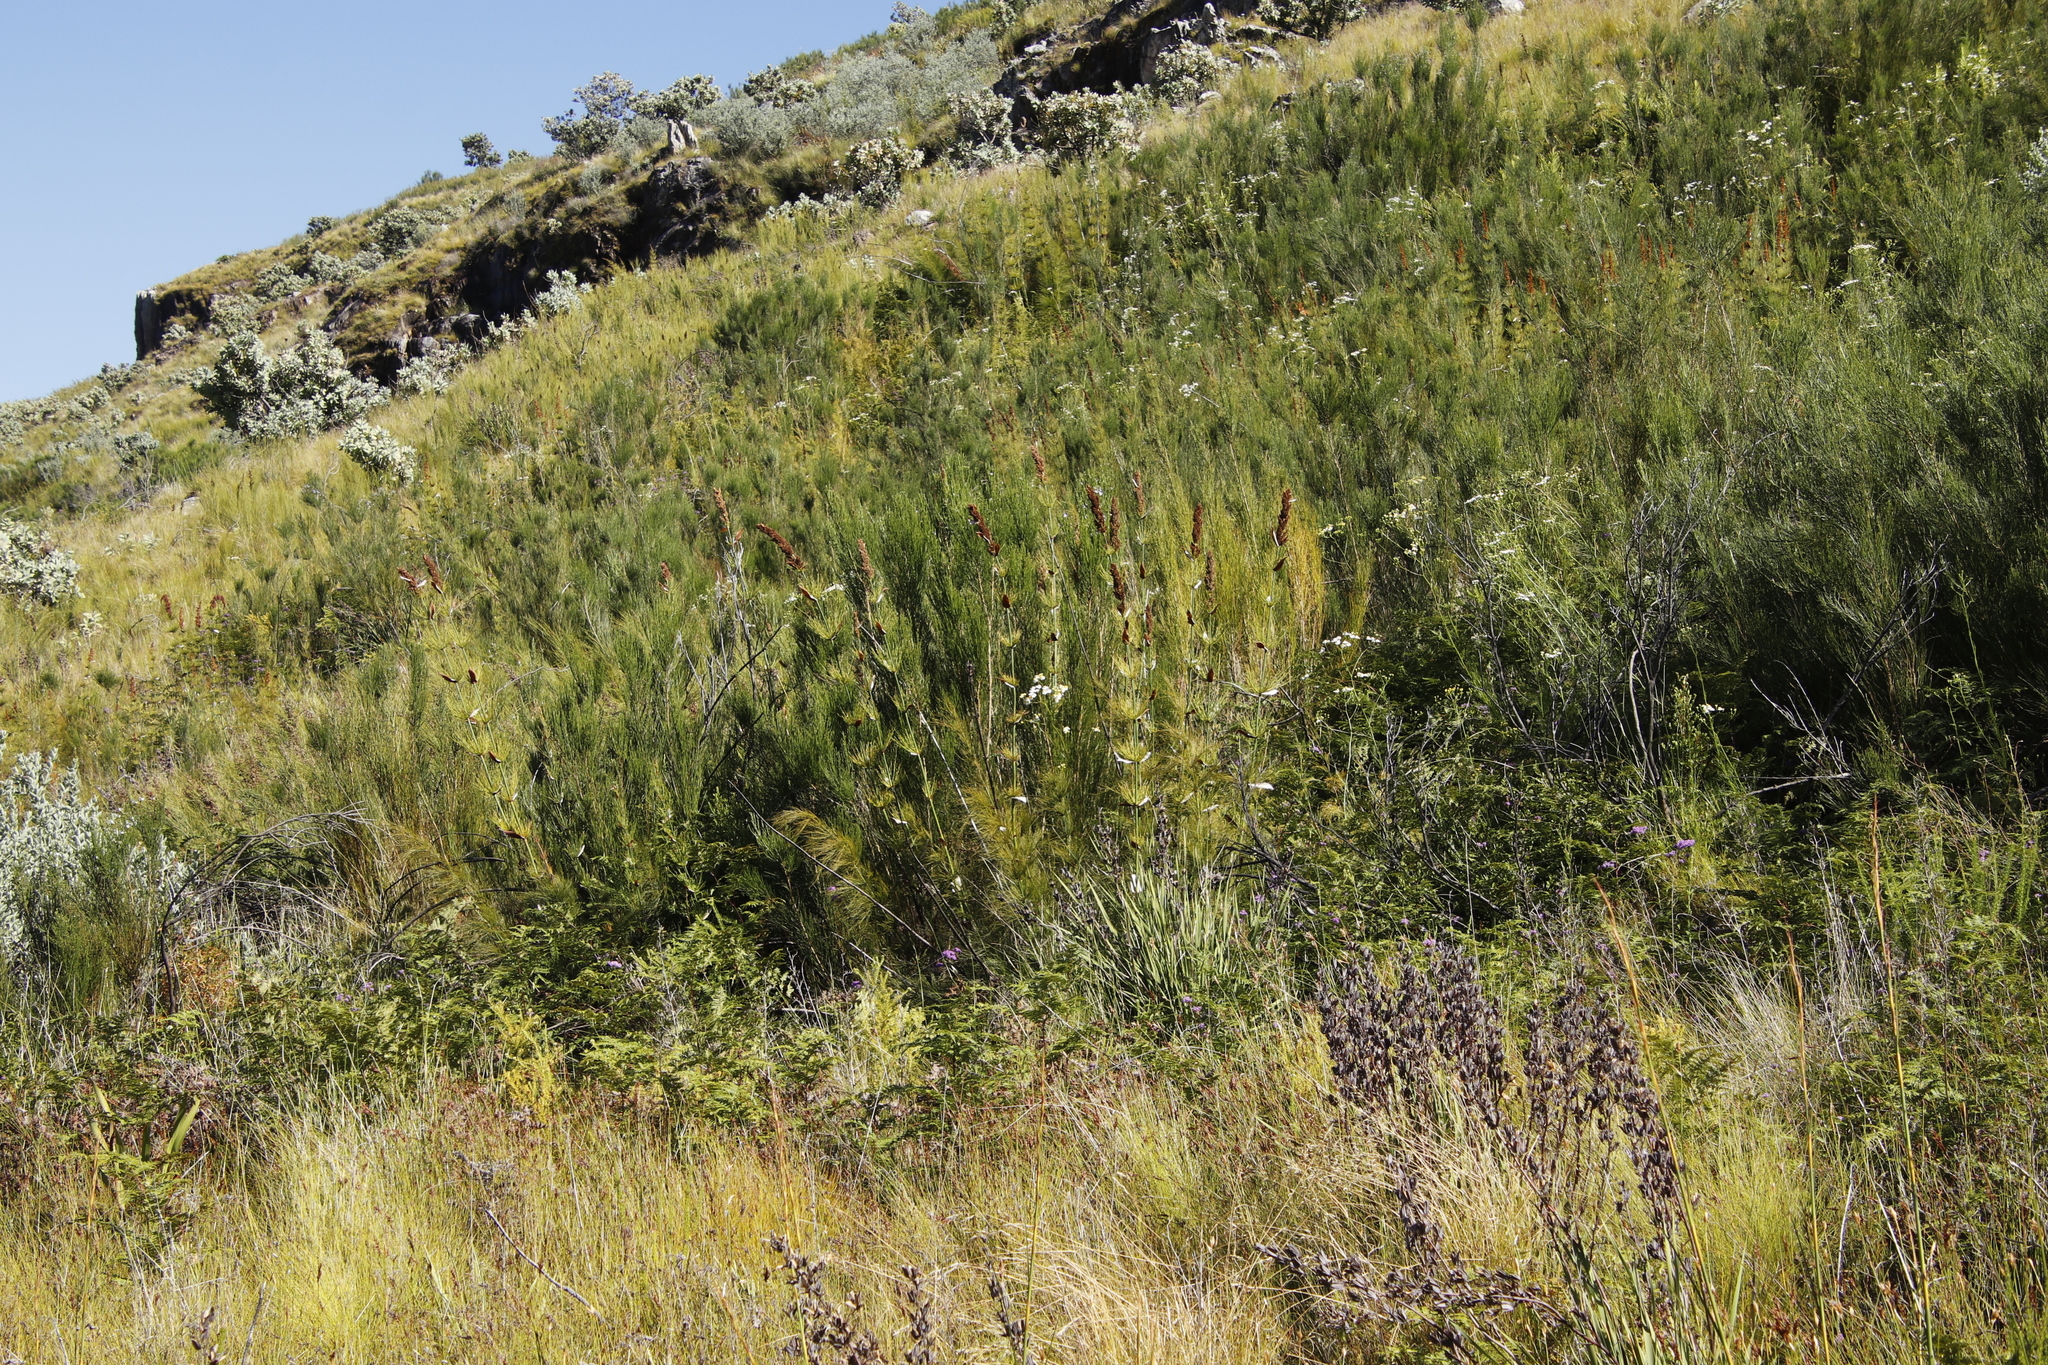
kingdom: Plantae
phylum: Tracheophyta
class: Liliopsida
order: Poales
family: Restionaceae
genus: Elegia
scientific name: Elegia capensis
